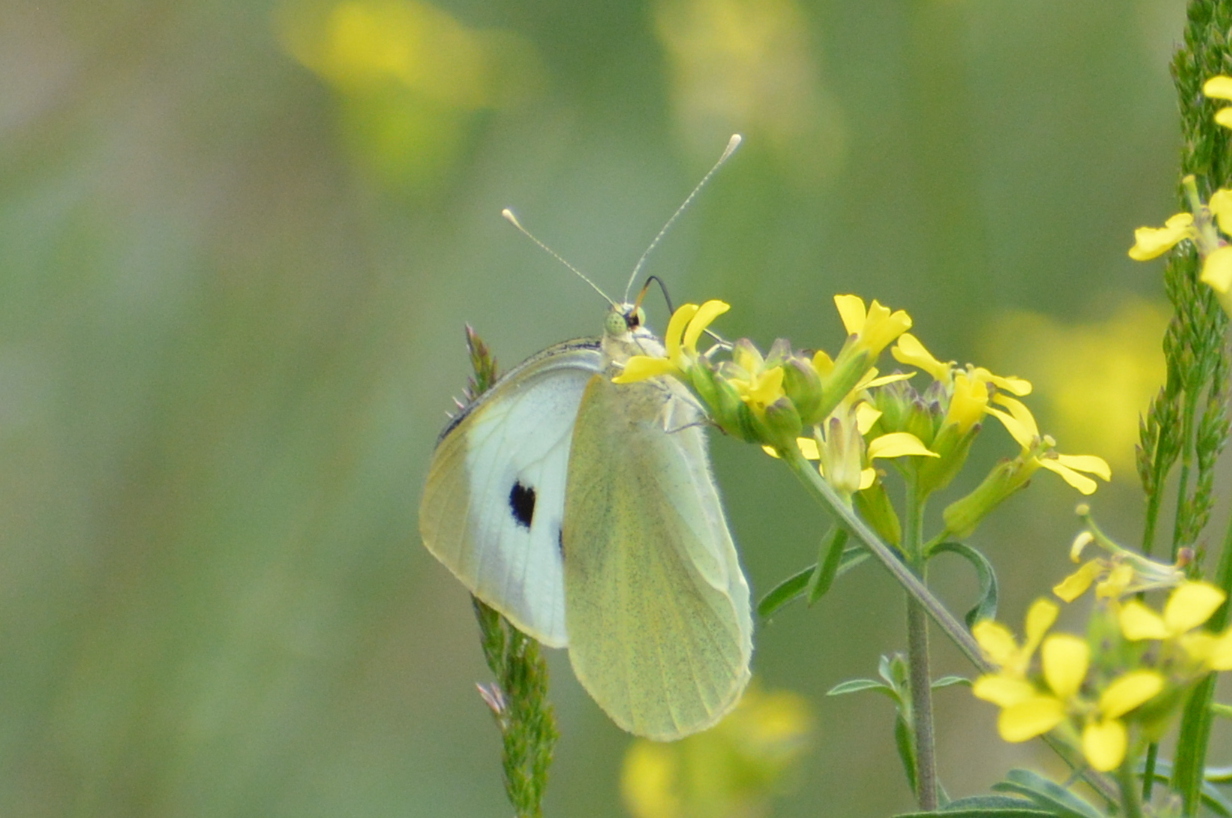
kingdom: Animalia
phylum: Arthropoda
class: Insecta
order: Lepidoptera
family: Pieridae
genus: Pieris
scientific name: Pieris brassicae
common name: Large white
